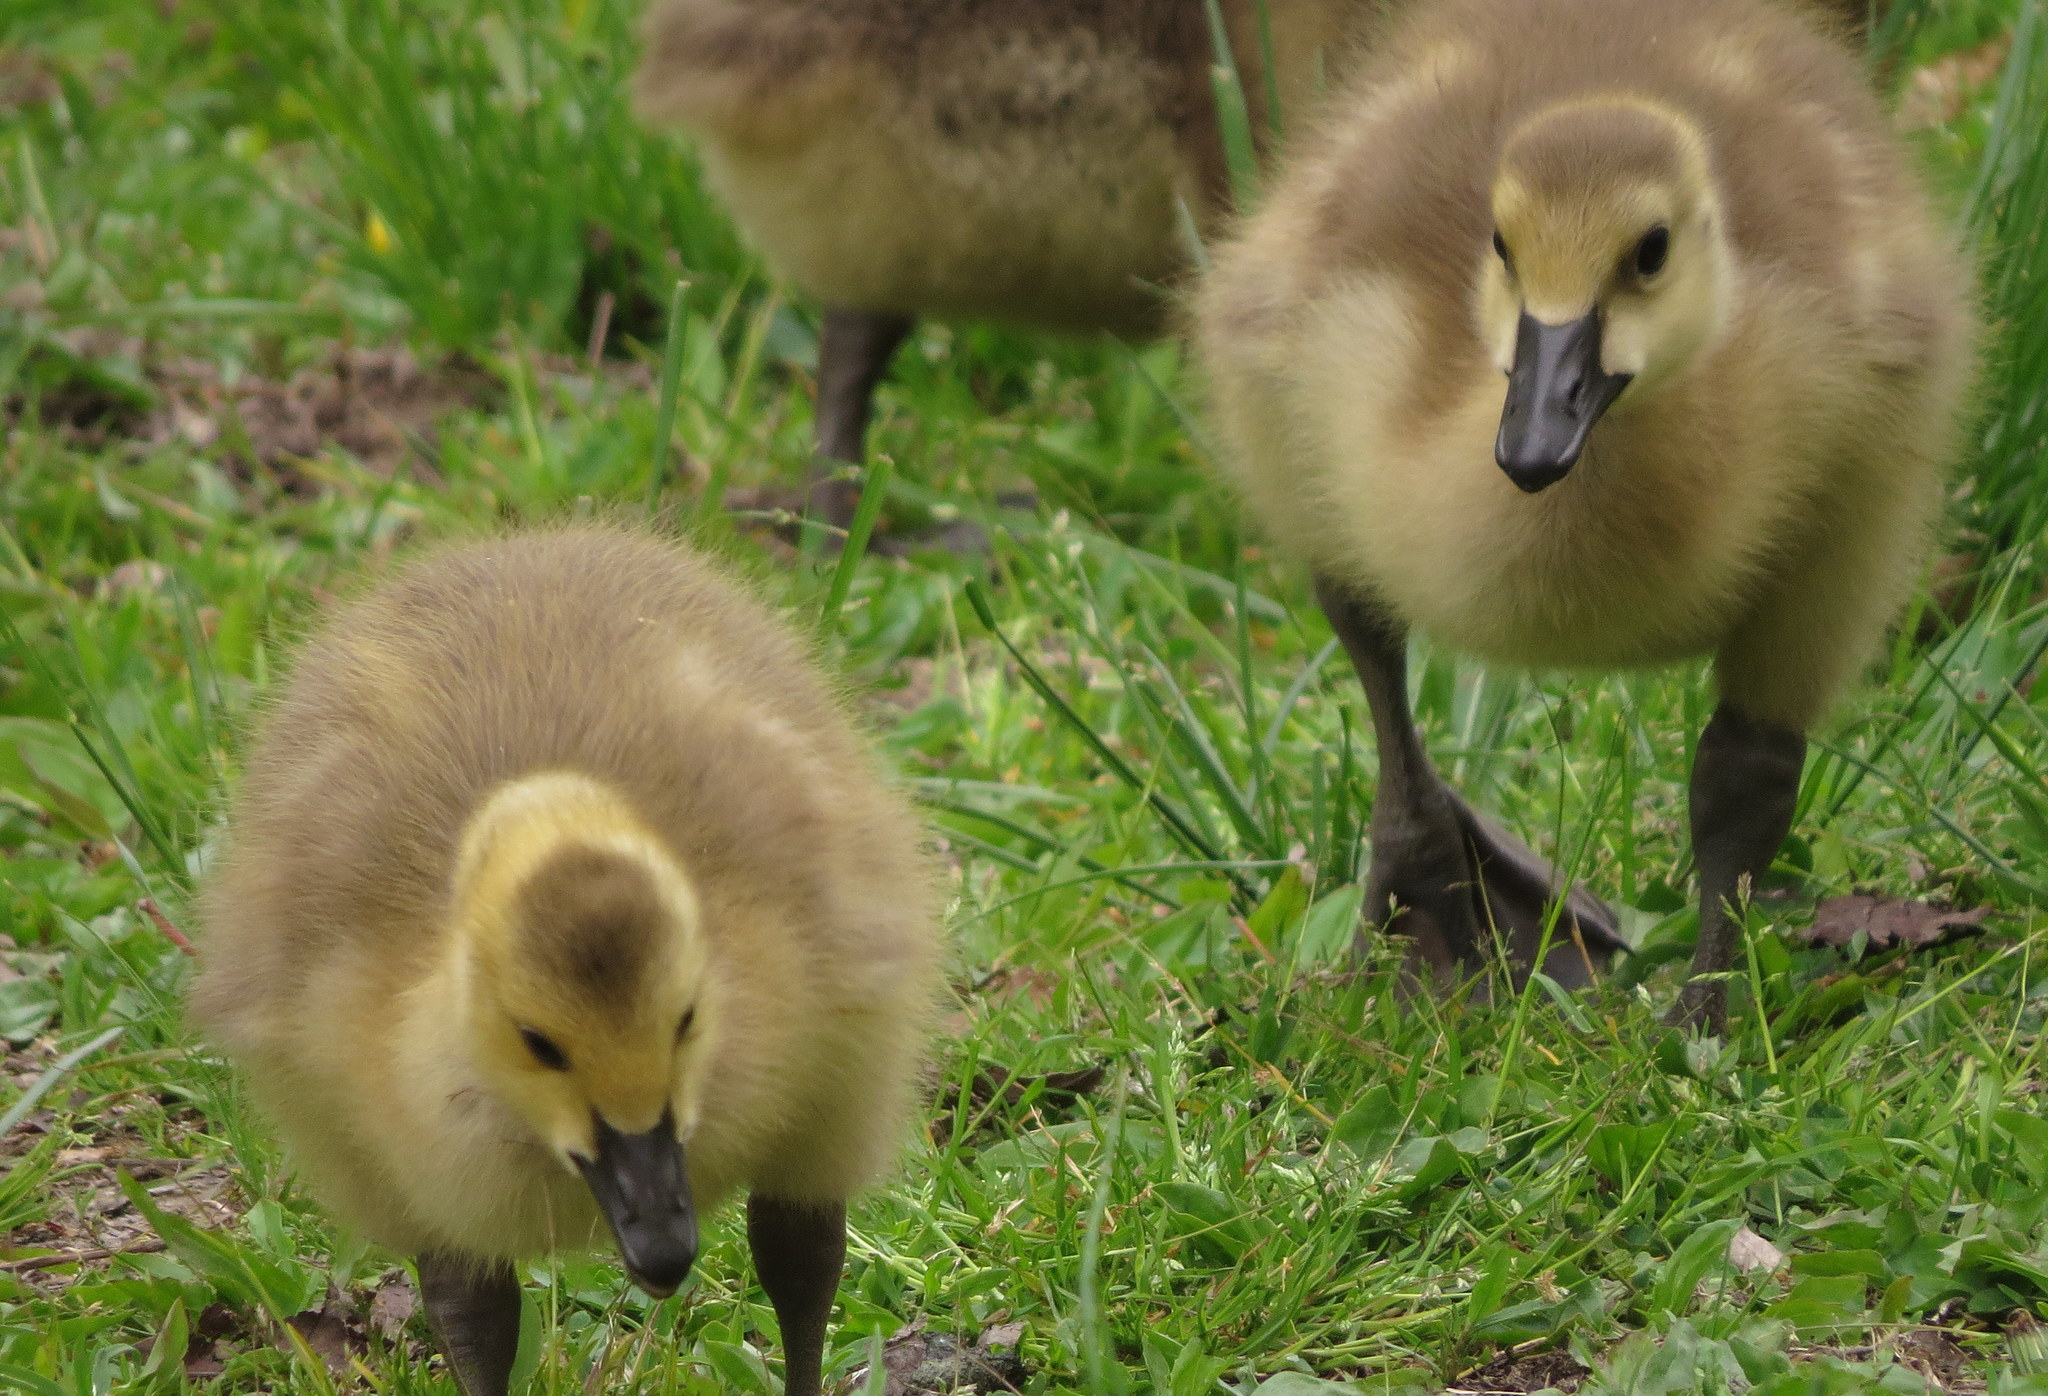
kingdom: Animalia
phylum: Chordata
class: Aves
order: Anseriformes
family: Anatidae
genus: Branta
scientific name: Branta canadensis
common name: Canada goose
